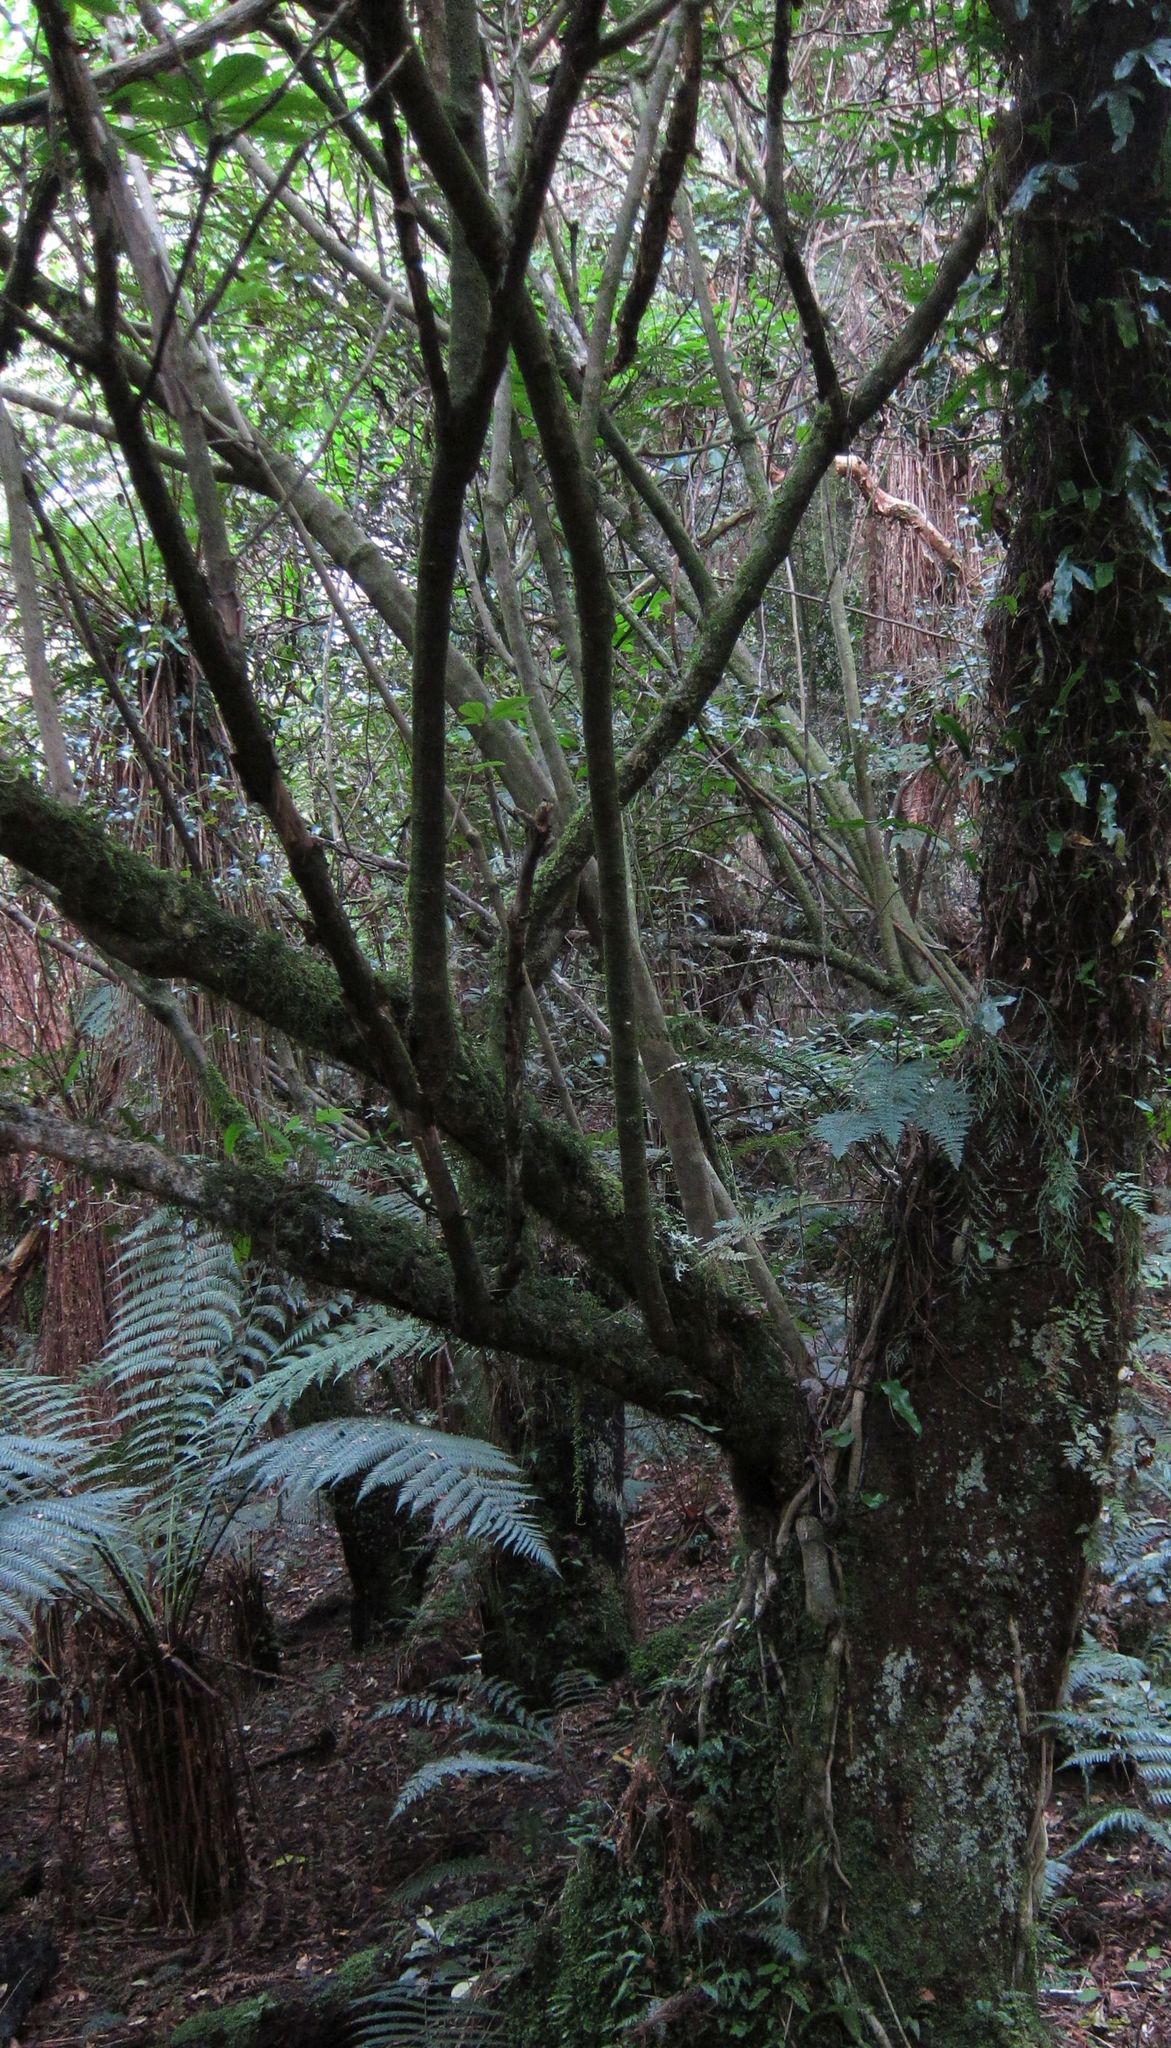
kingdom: Plantae
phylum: Tracheophyta
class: Magnoliopsida
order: Apiales
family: Araliaceae
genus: Schefflera
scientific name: Schefflera digitata
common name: Pate
